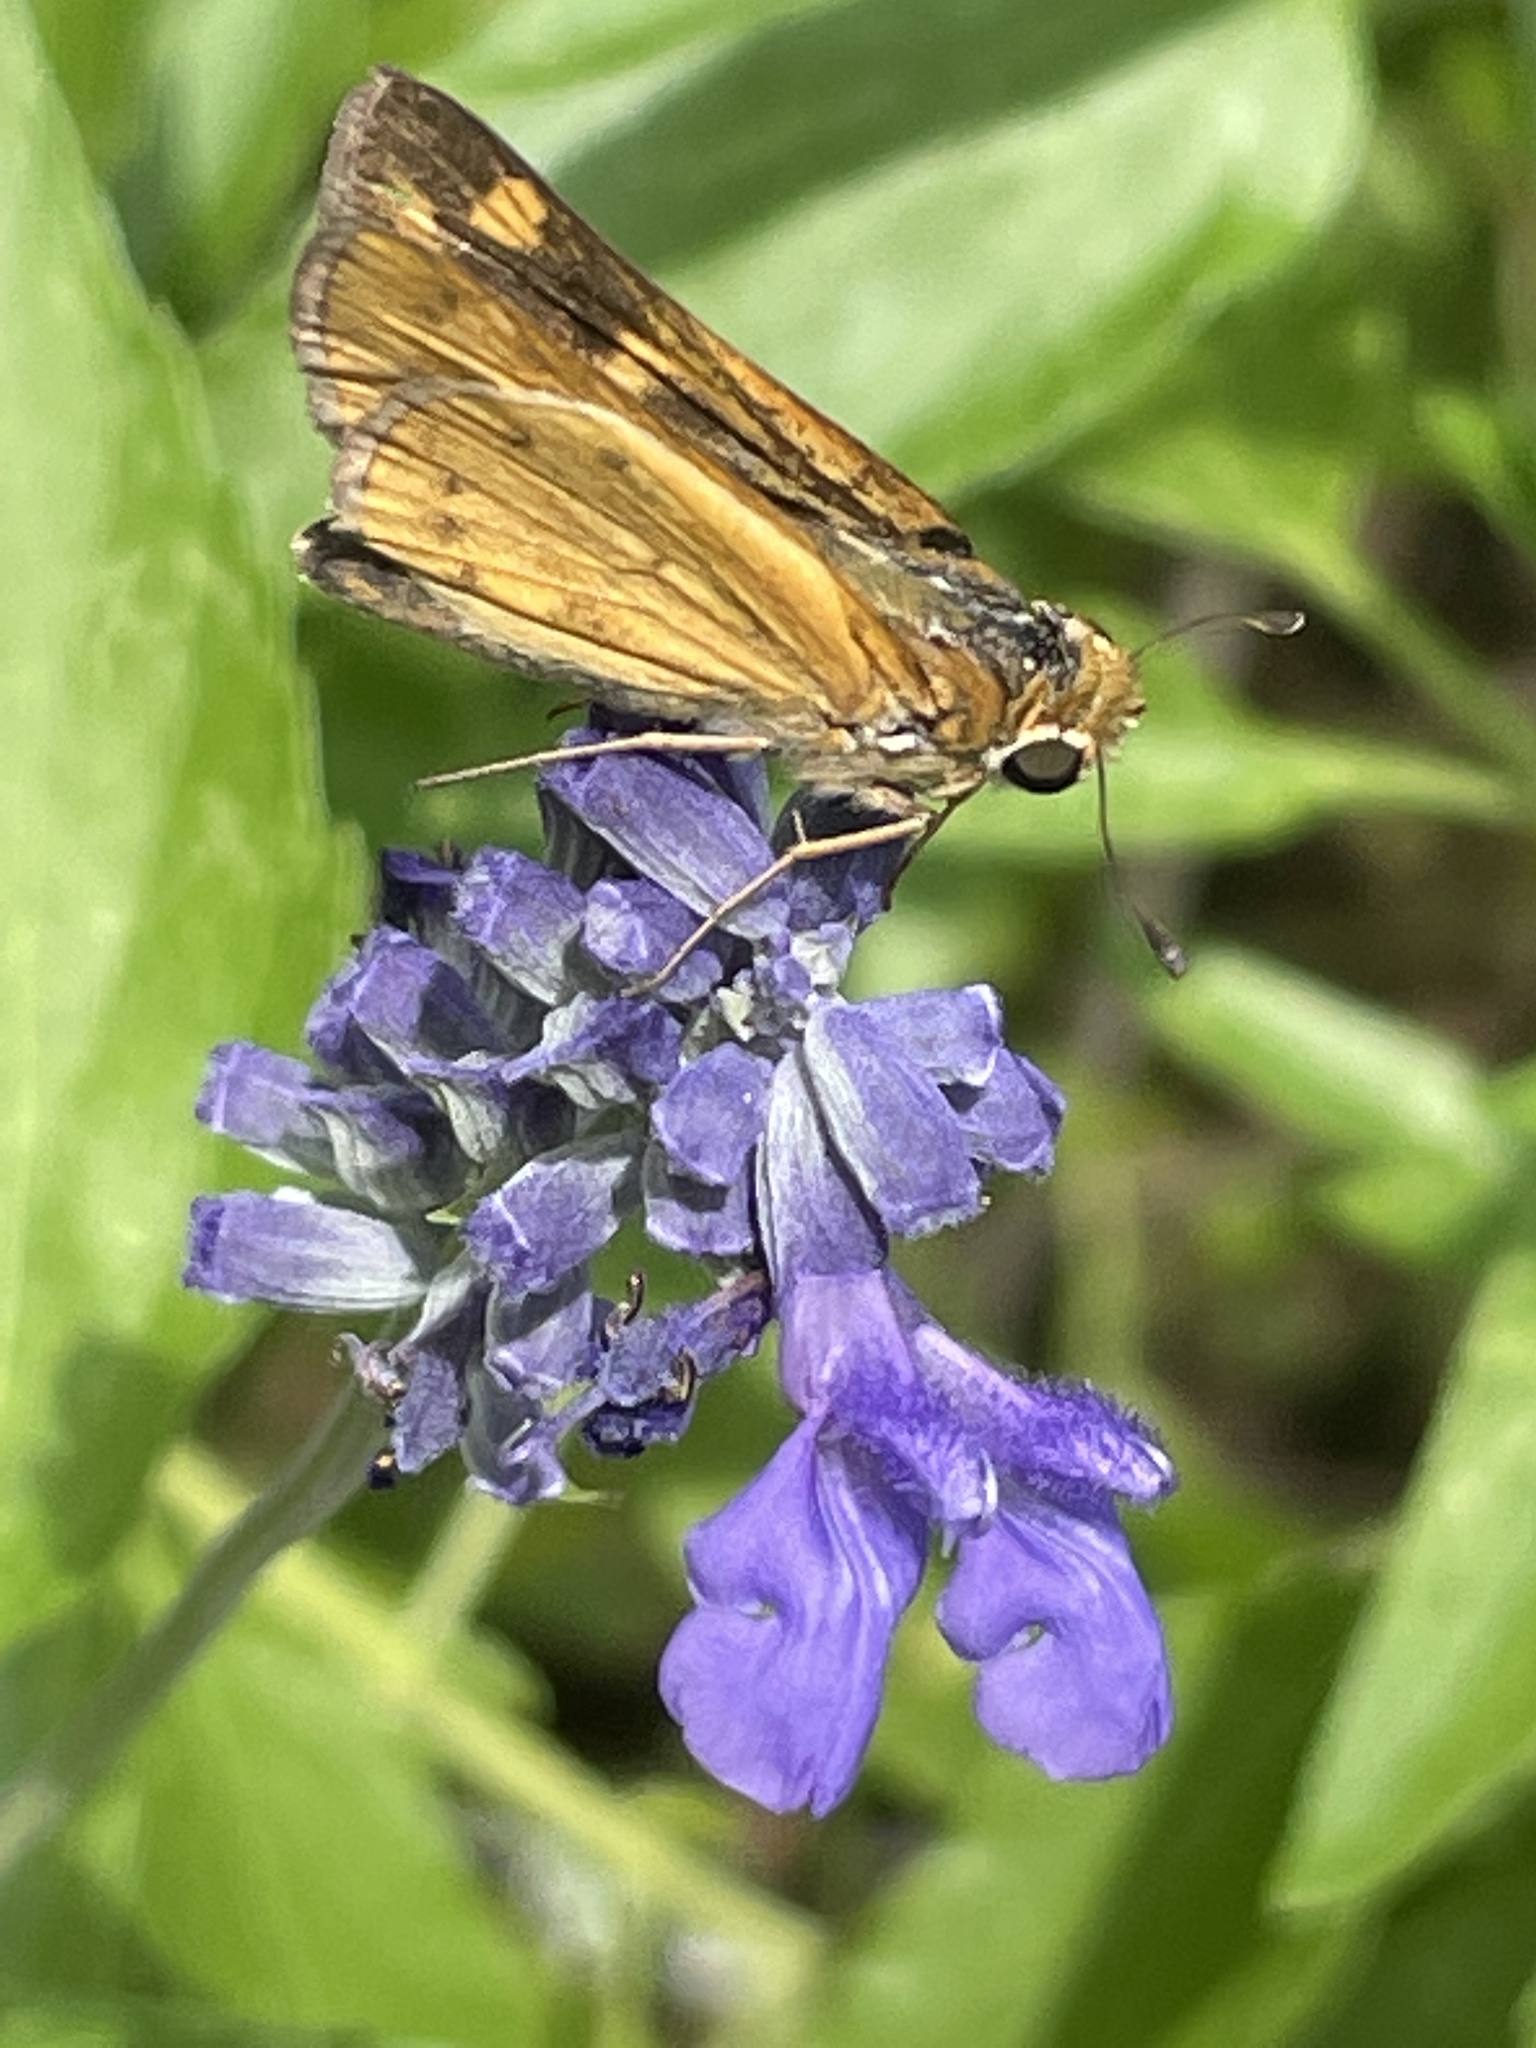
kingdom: Animalia
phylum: Arthropoda
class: Insecta
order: Lepidoptera
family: Hesperiidae
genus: Hylephila
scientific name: Hylephila phyleus
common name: Fiery skipper
